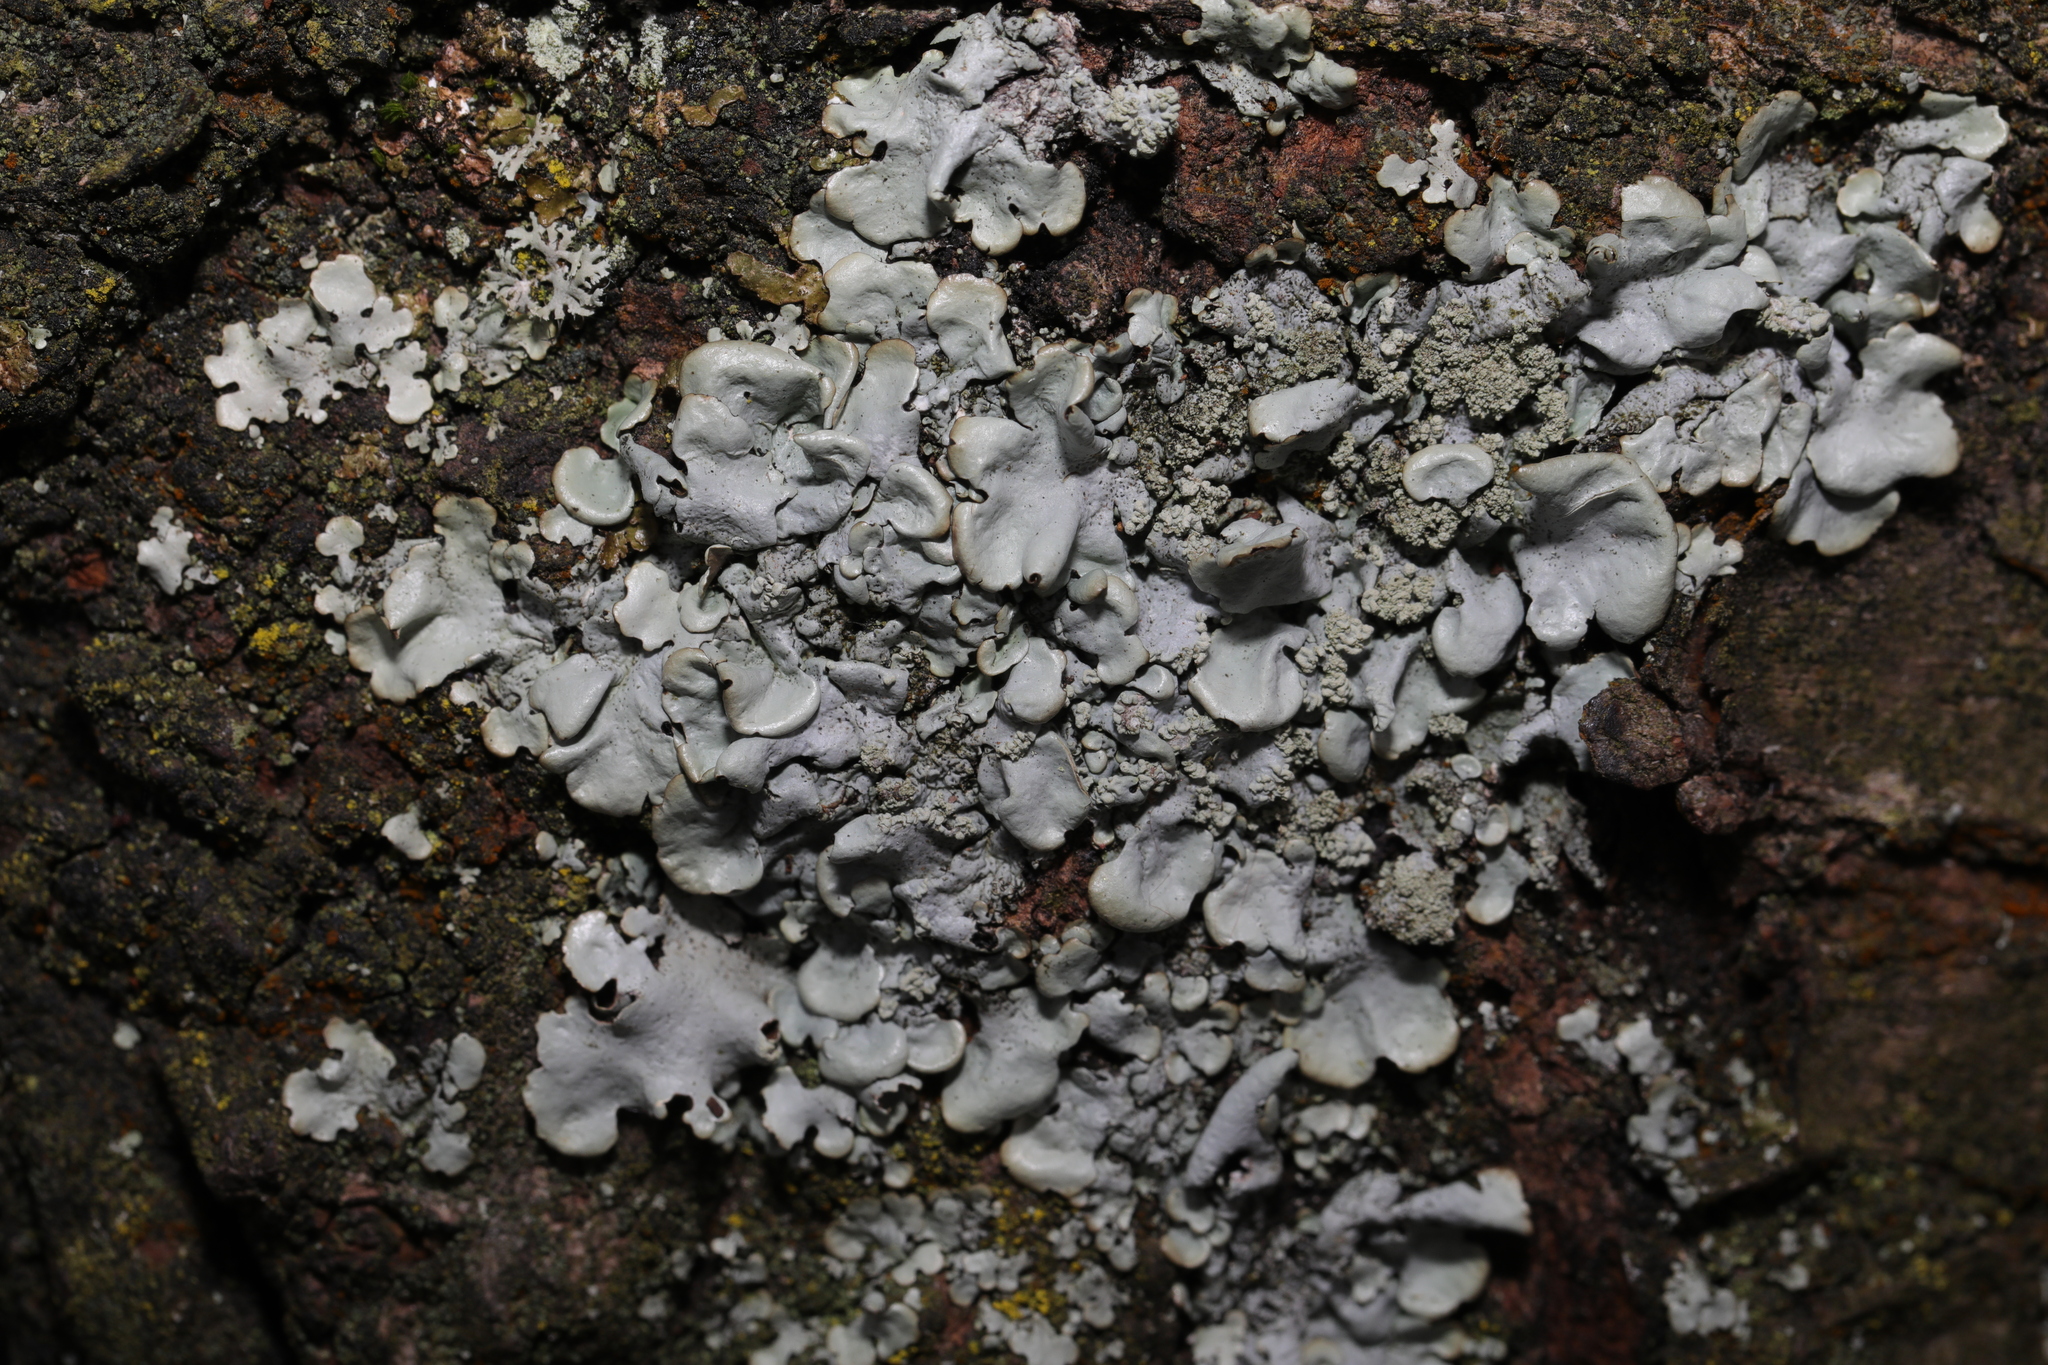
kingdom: Fungi
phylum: Ascomycota
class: Lecanoromycetes
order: Lecanorales
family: Parmeliaceae
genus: Hypotrachyna
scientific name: Hypotrachyna afrorevoluta
